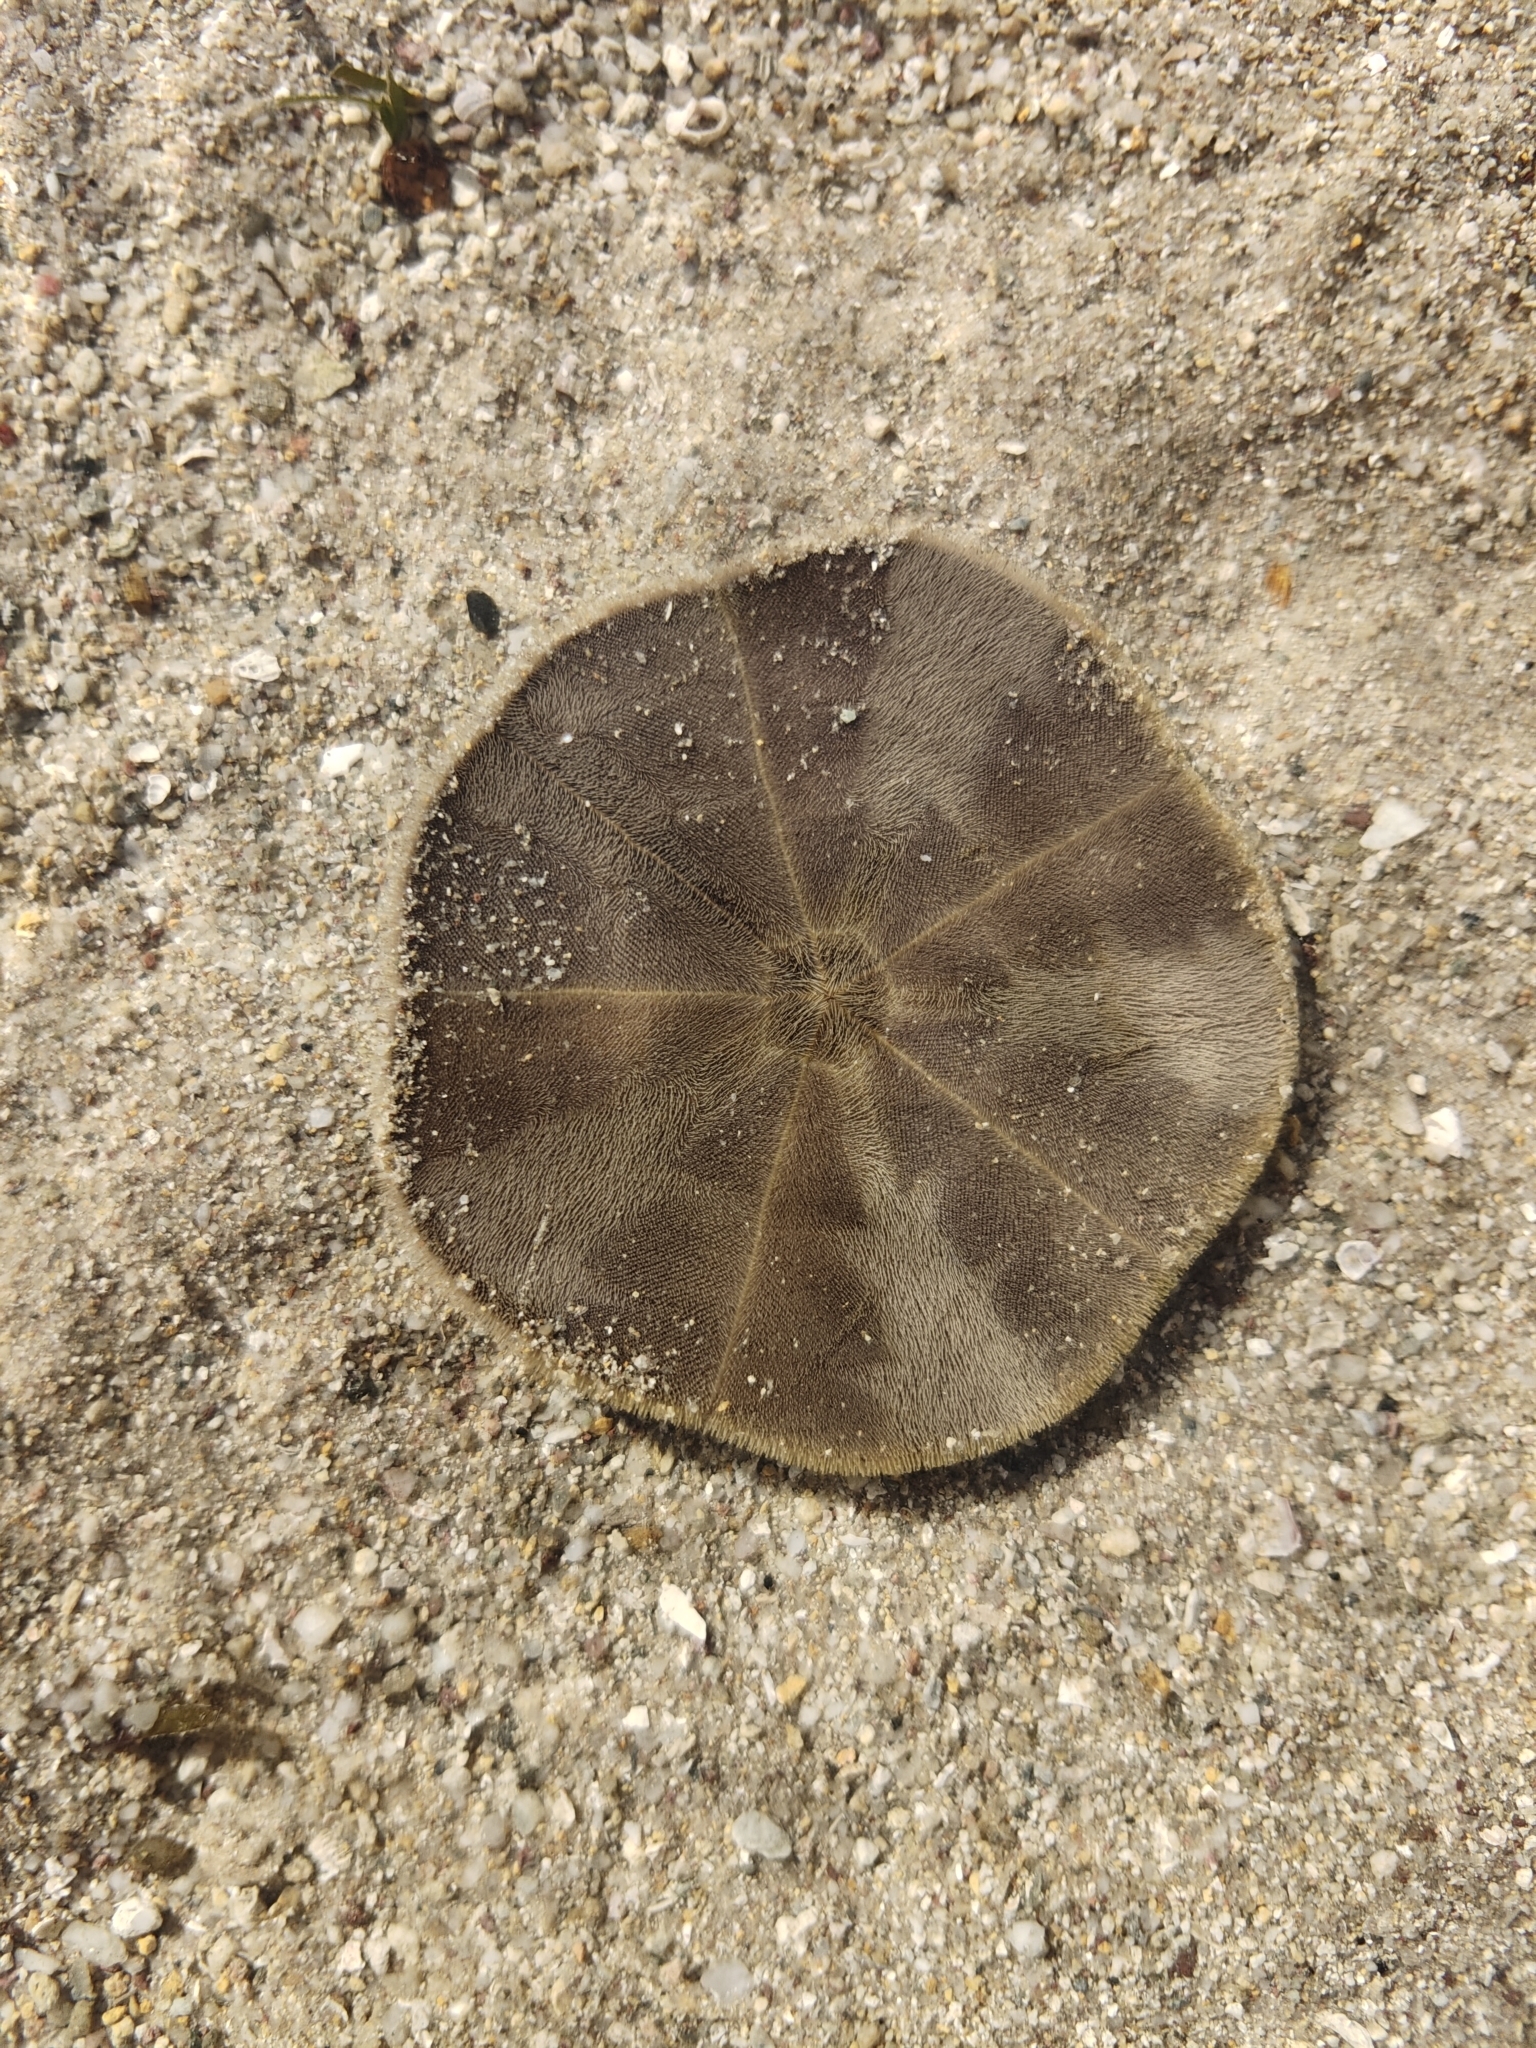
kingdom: Animalia
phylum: Echinodermata
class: Echinoidea
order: Clypeasteroida
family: Clypeasteridae
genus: Arachnoides
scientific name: Arachnoides placenta
